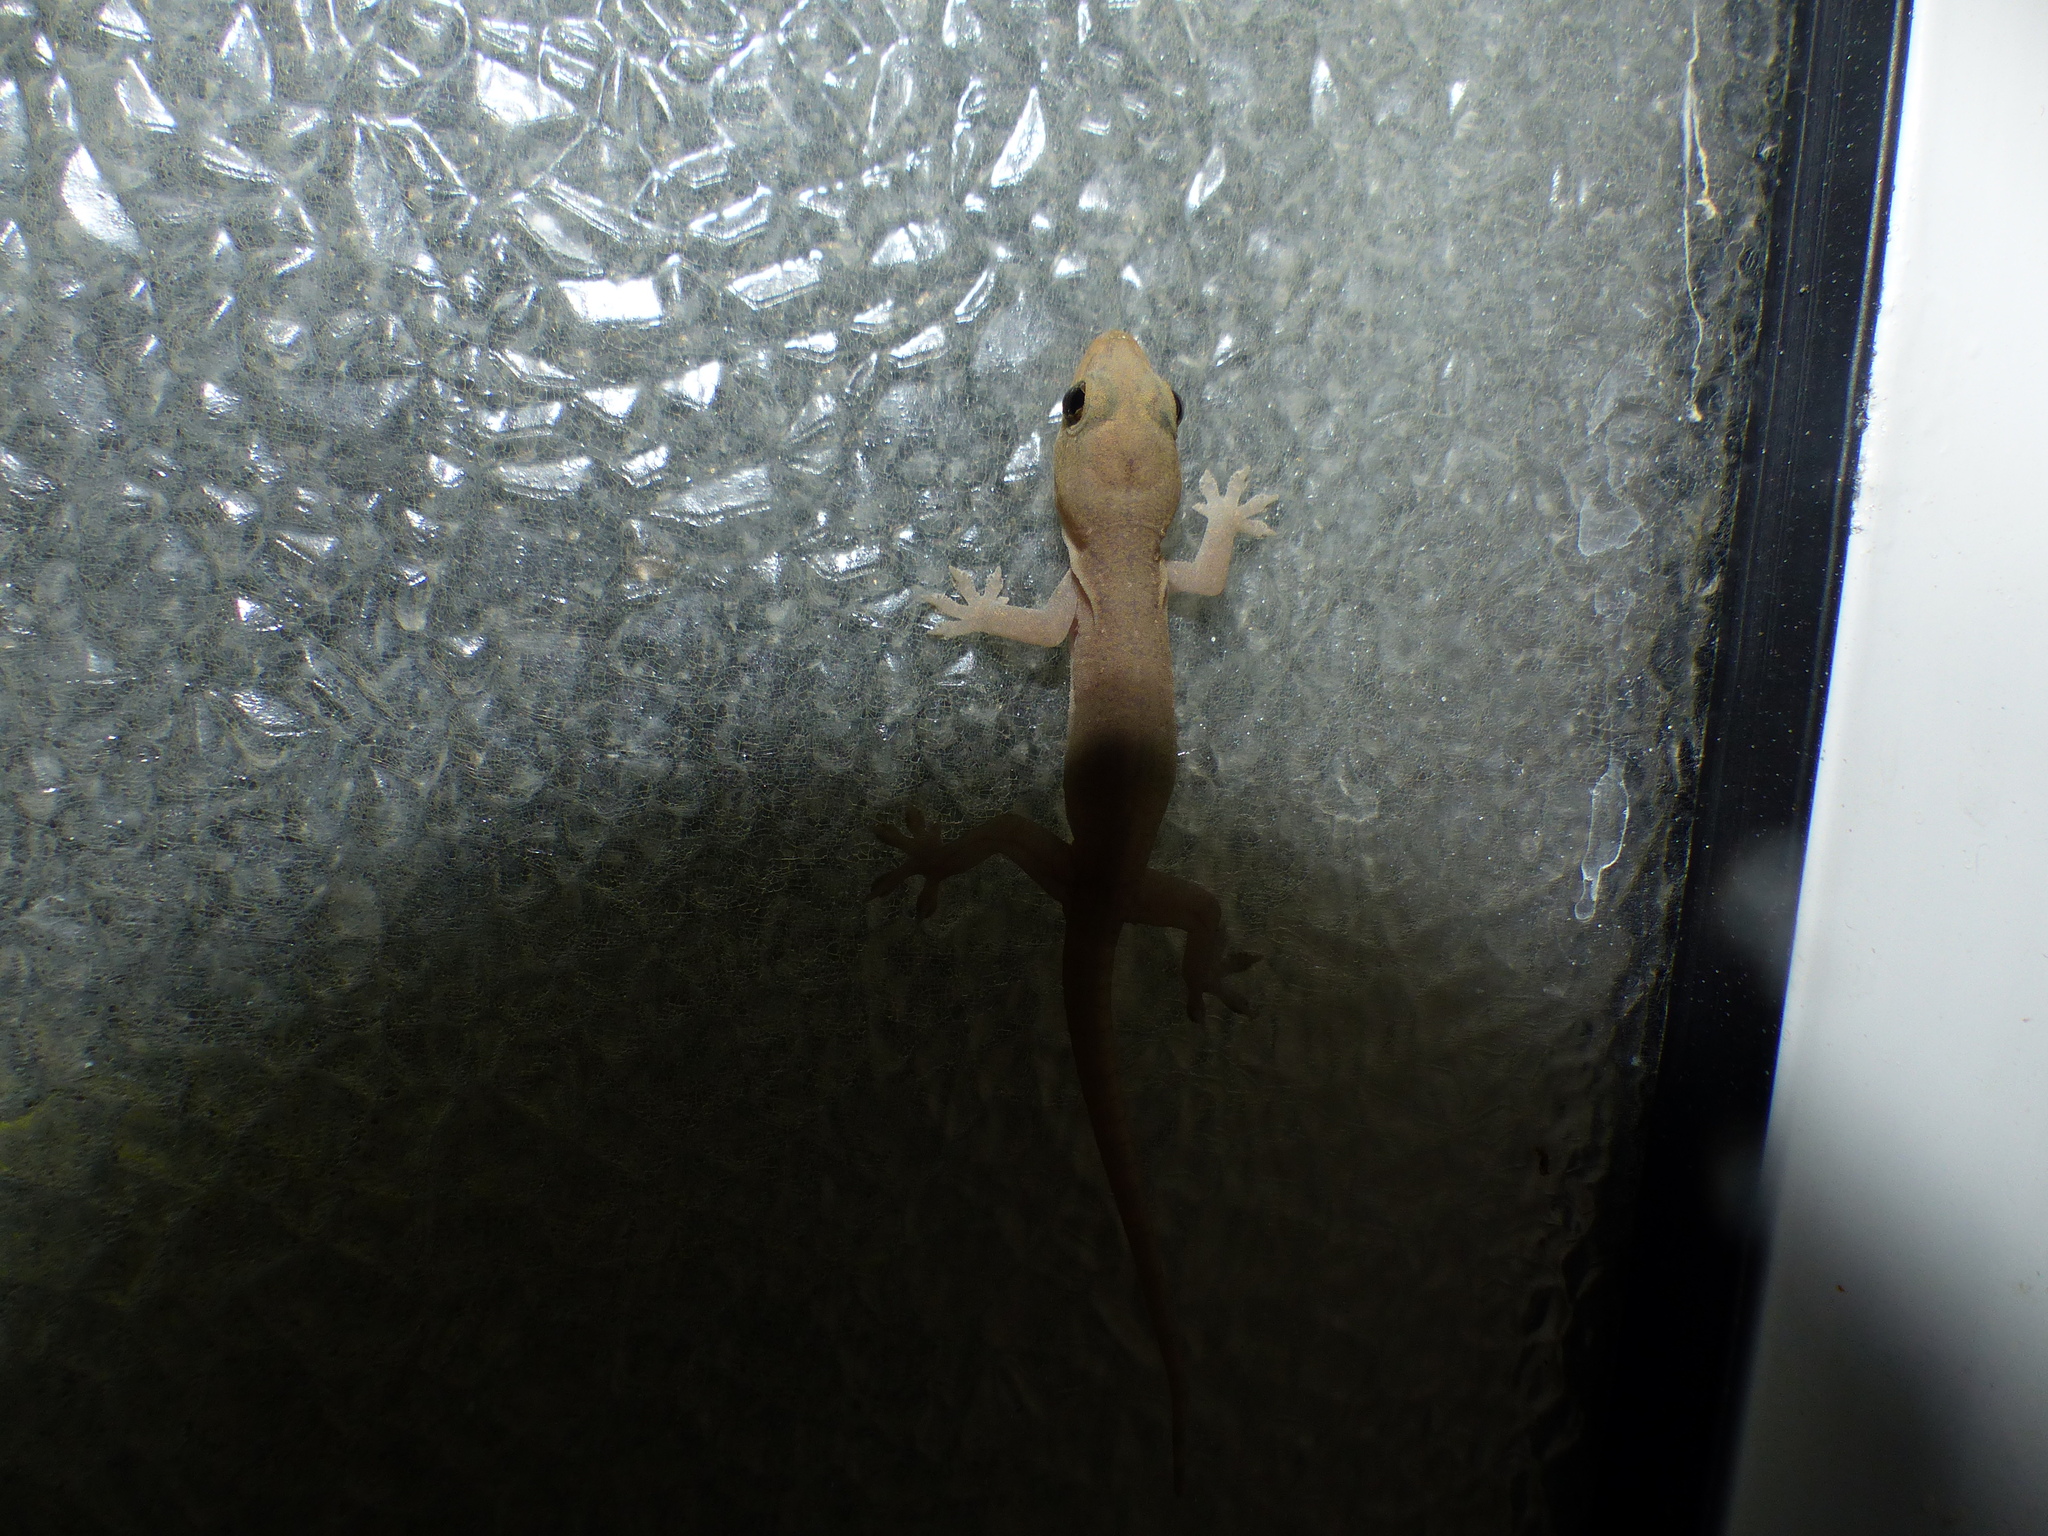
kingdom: Animalia
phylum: Chordata
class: Squamata
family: Gekkonidae
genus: Hemidactylus
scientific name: Hemidactylus frenatus
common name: Common house gecko
